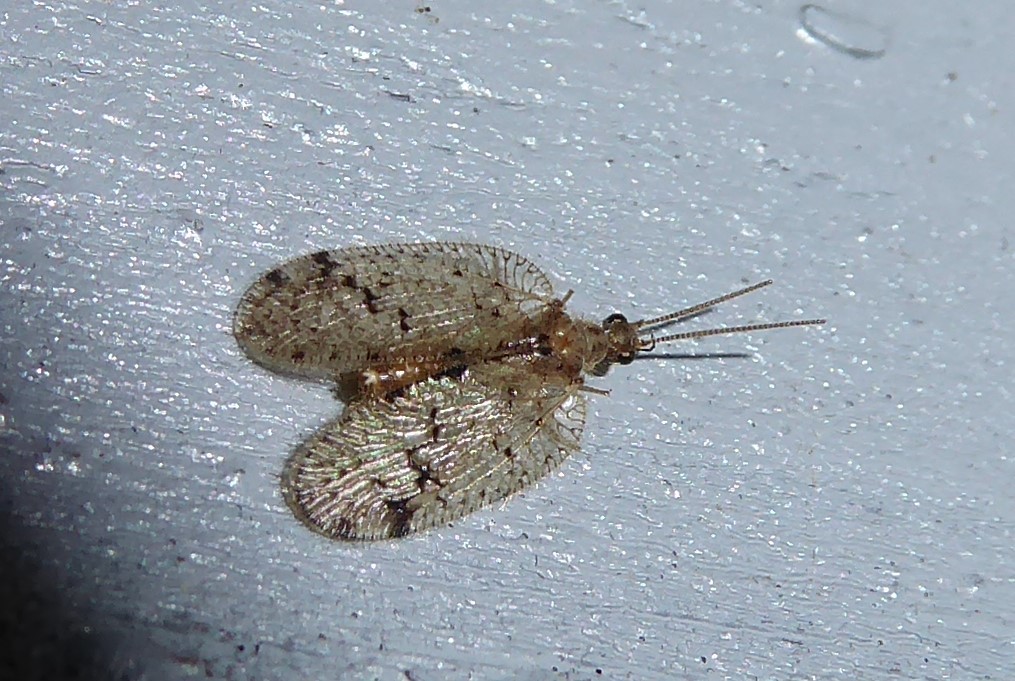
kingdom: Animalia
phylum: Arthropoda
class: Insecta
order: Neuroptera
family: Hemerobiidae
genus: Psectra
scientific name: Psectra nakaharai
